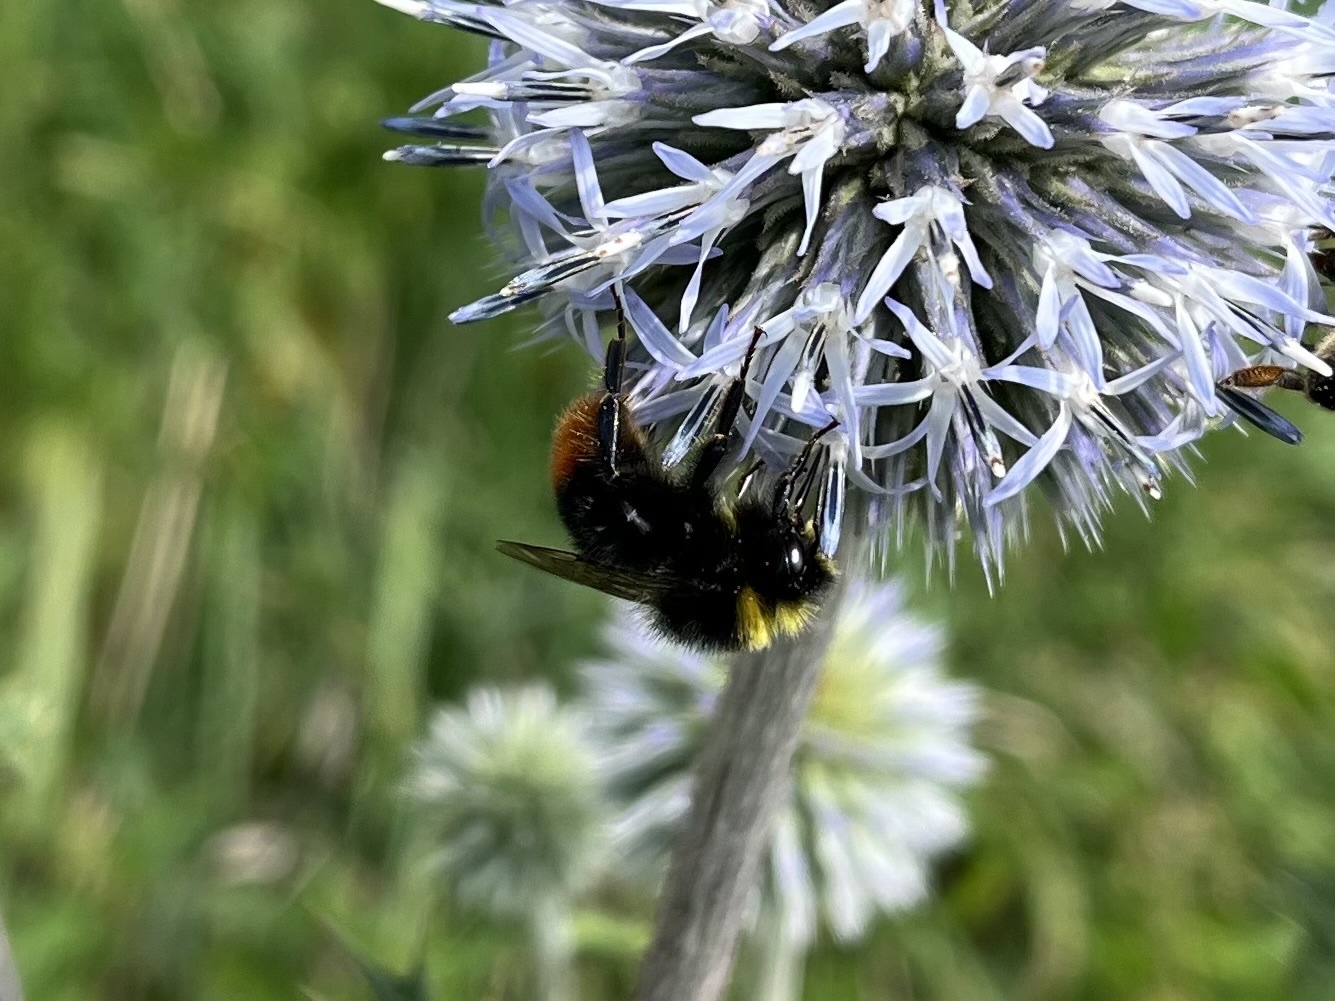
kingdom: Animalia
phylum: Arthropoda
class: Insecta
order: Hymenoptera
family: Apidae
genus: Bombus
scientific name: Bombus lapidarius
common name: Large red-tailed humble-bee
